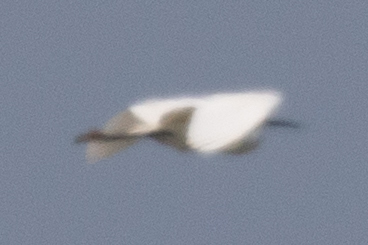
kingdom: Animalia
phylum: Chordata
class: Aves
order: Pelecaniformes
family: Ardeidae
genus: Egretta
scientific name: Egretta garzetta
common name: Little egret
